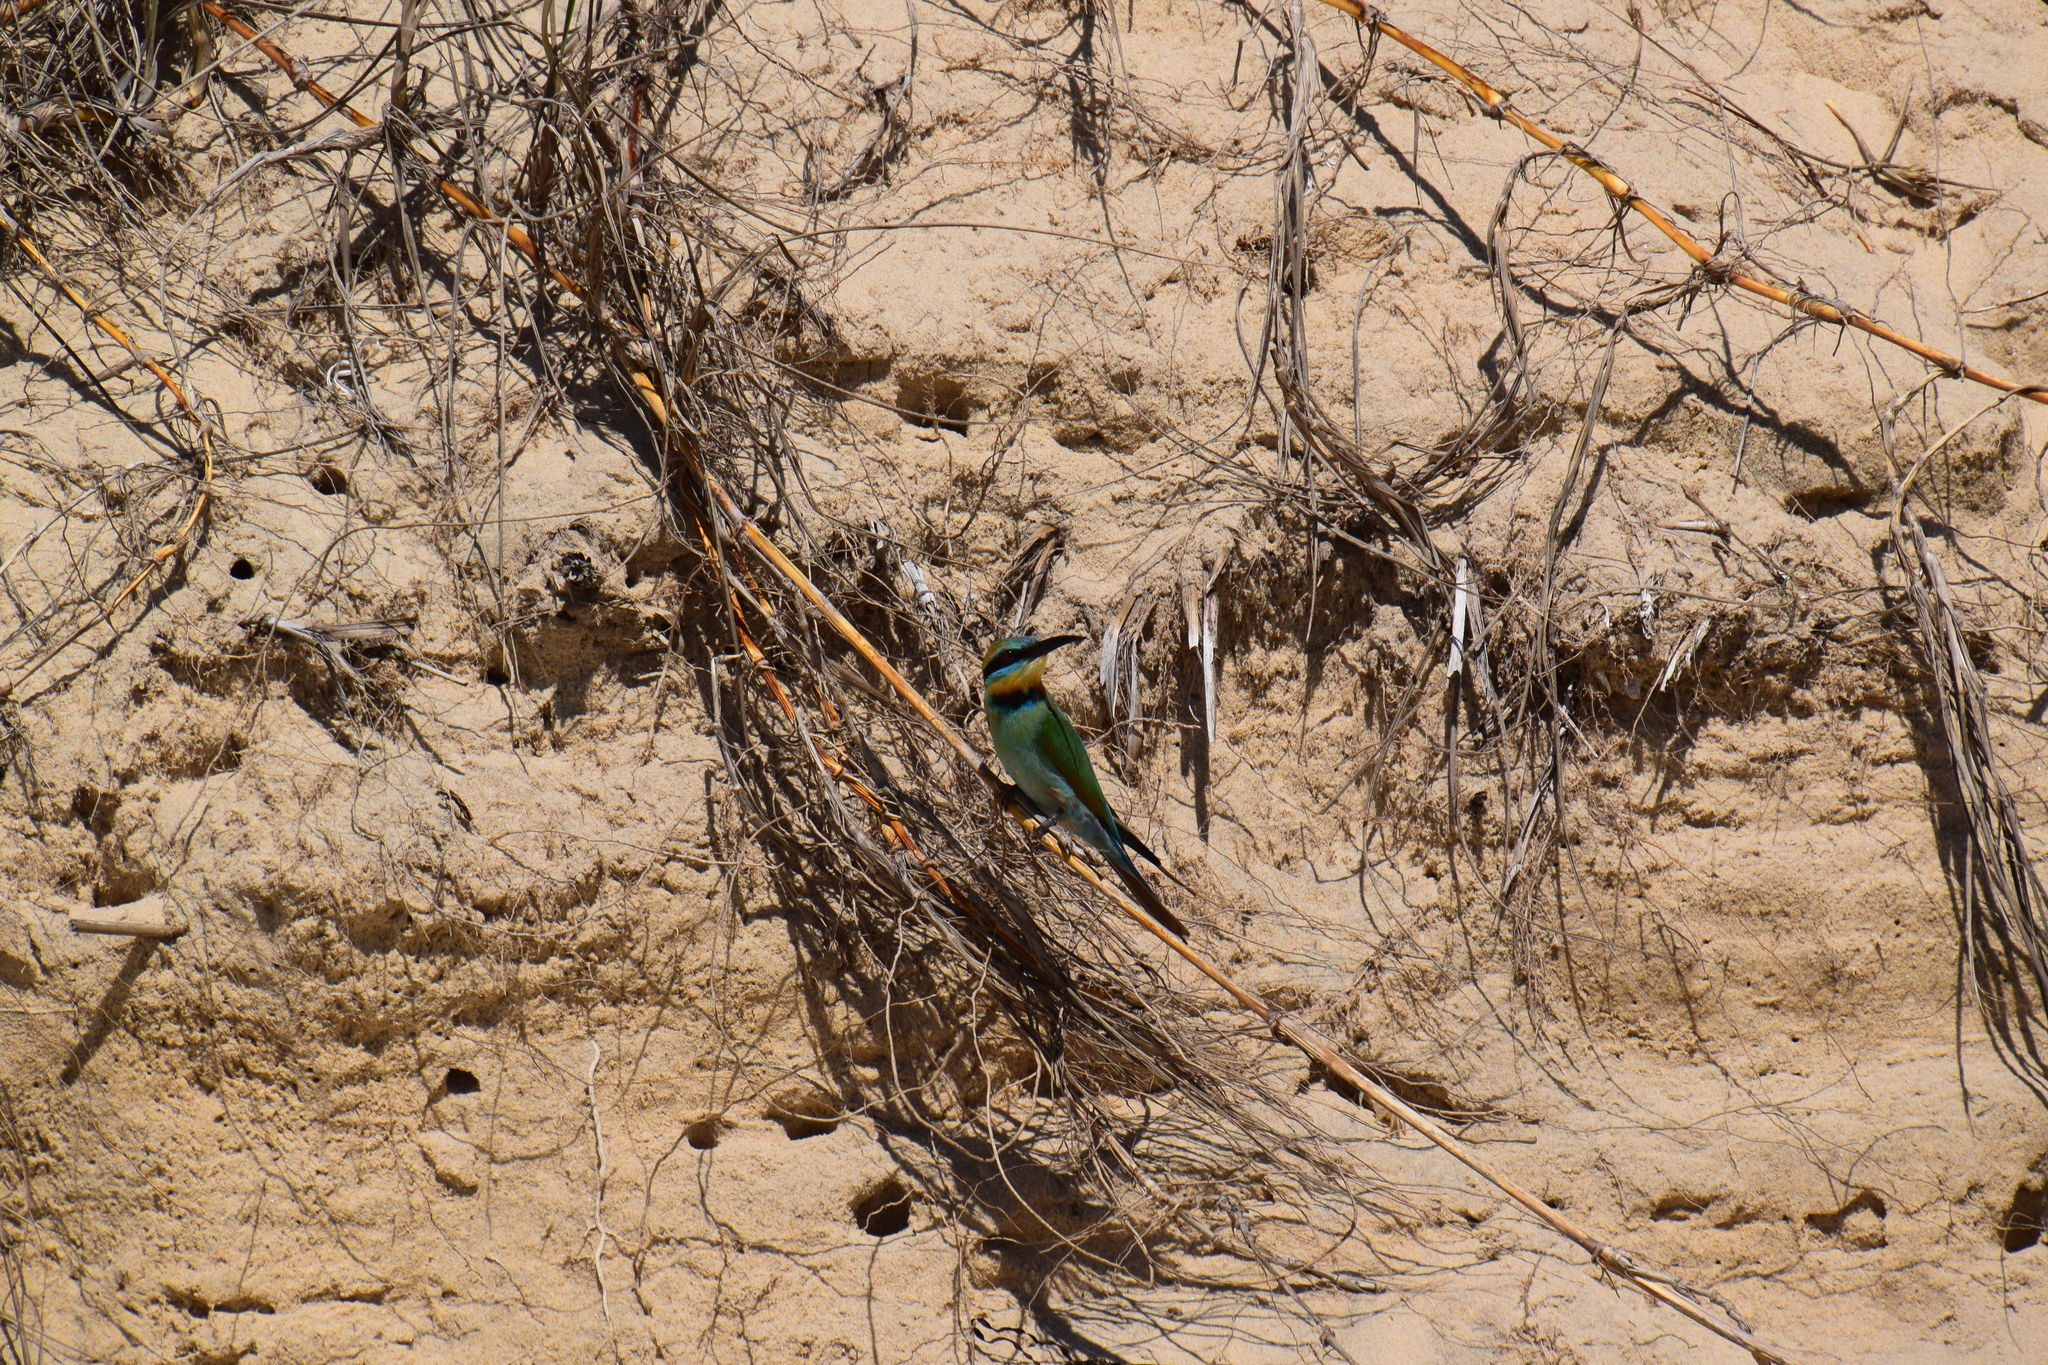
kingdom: Animalia
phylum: Chordata
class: Aves
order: Coraciiformes
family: Meropidae
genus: Merops
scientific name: Merops ornatus
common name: Rainbow bee-eater
